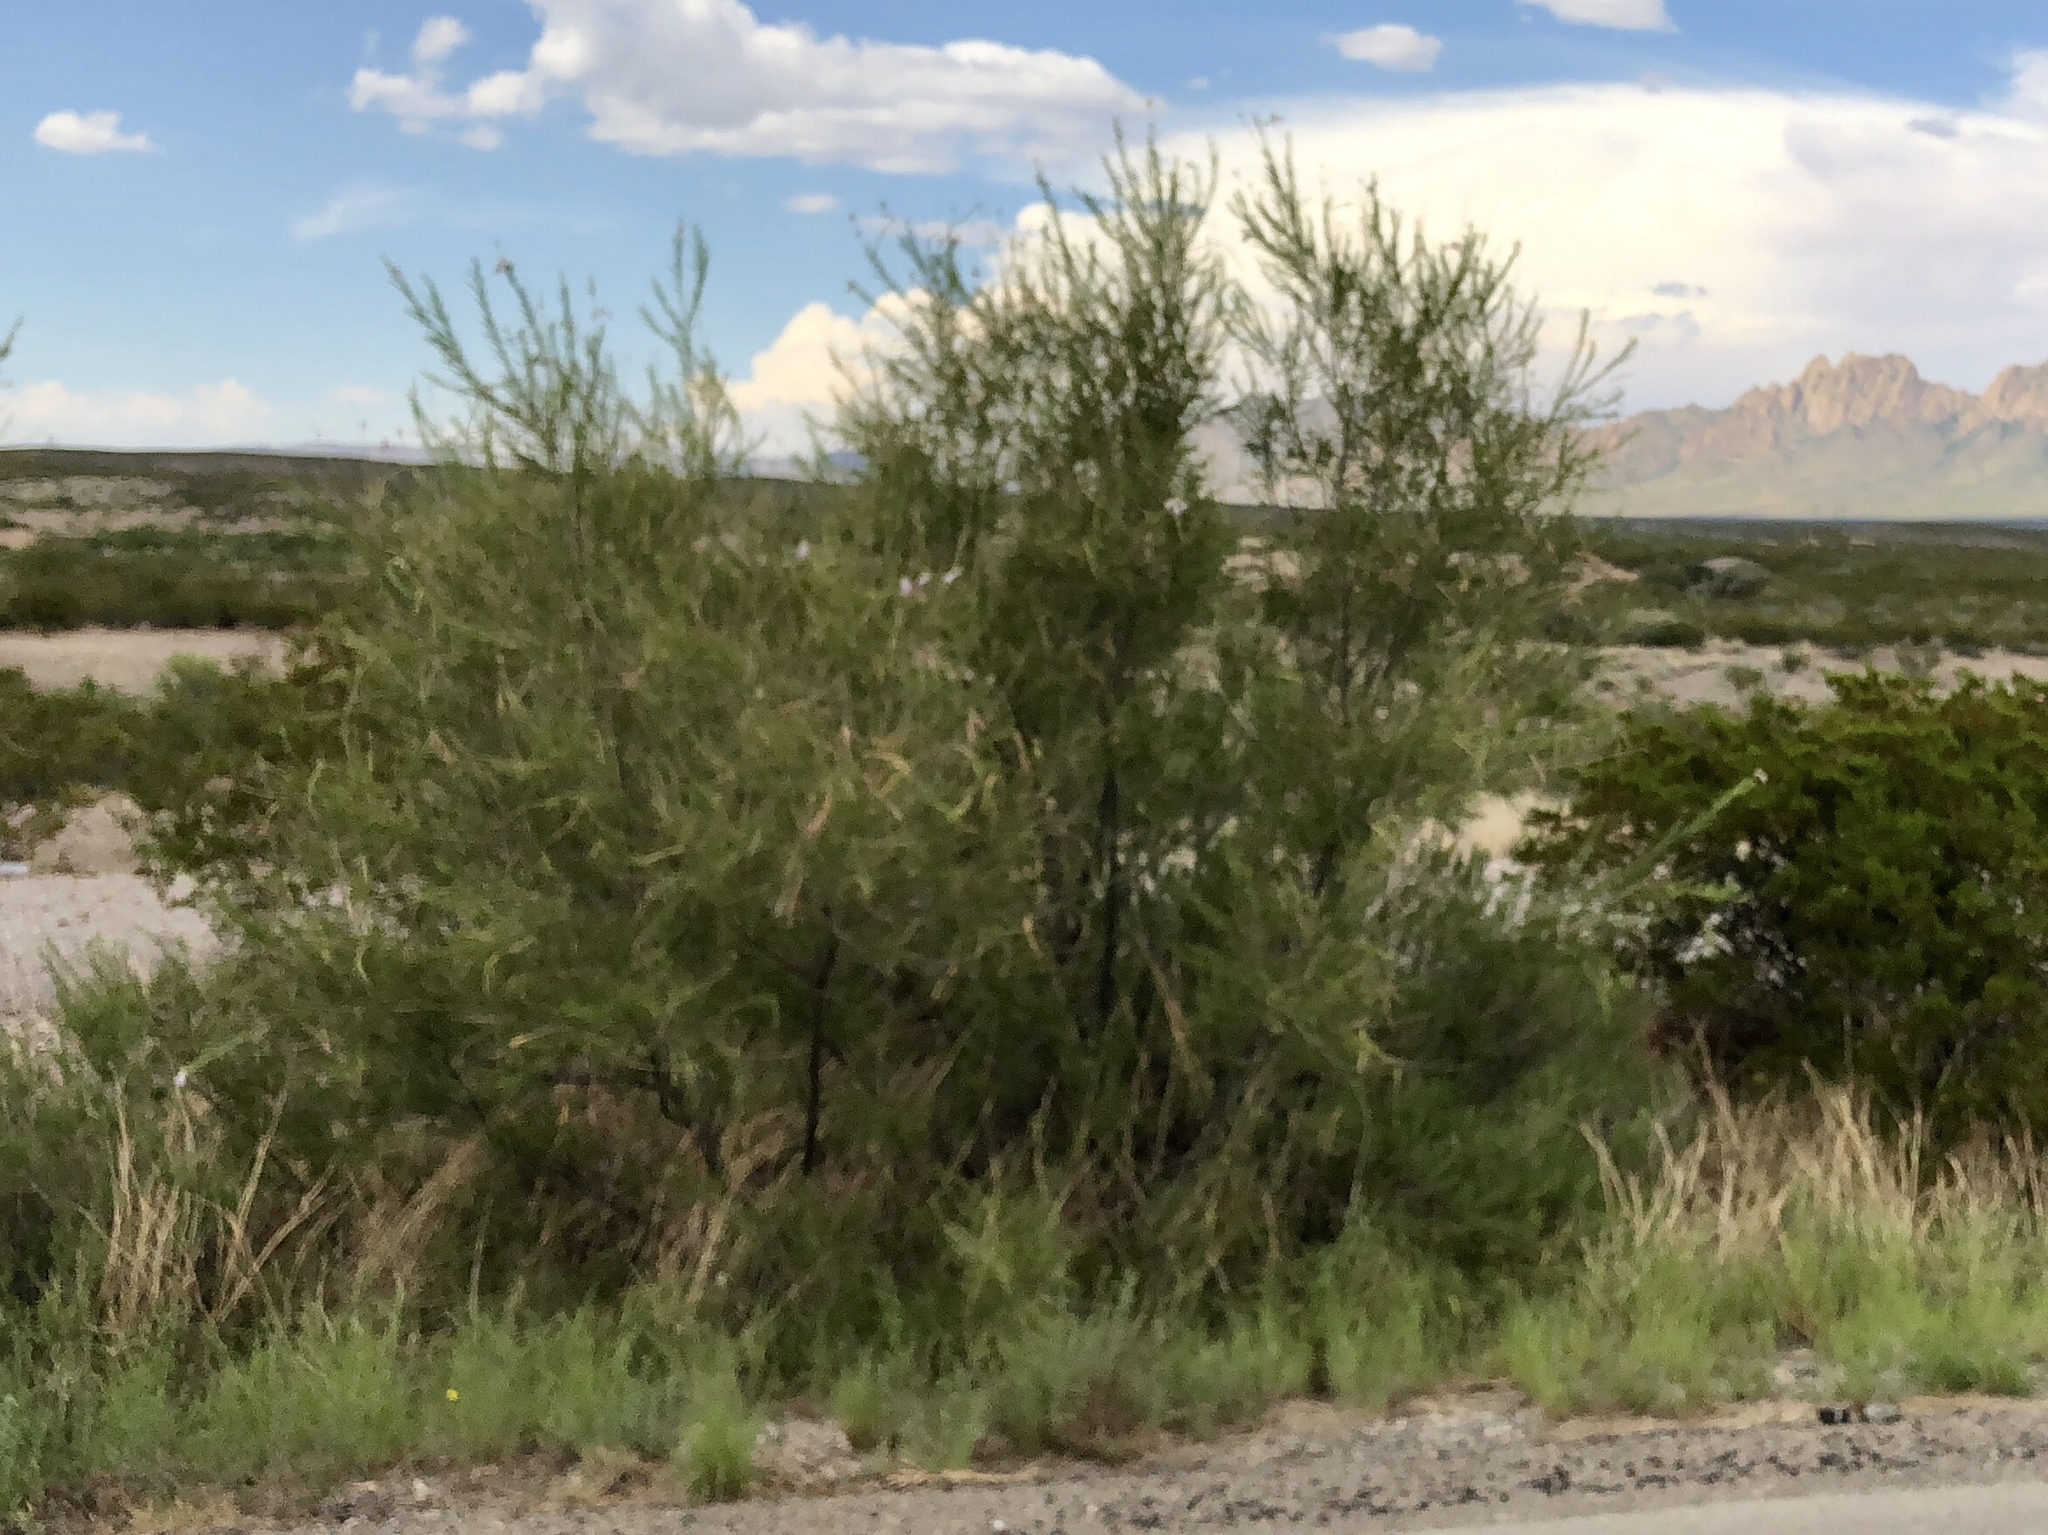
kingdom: Plantae
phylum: Tracheophyta
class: Magnoliopsida
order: Lamiales
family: Bignoniaceae
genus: Chilopsis
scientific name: Chilopsis linearis
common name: Desert-willow
